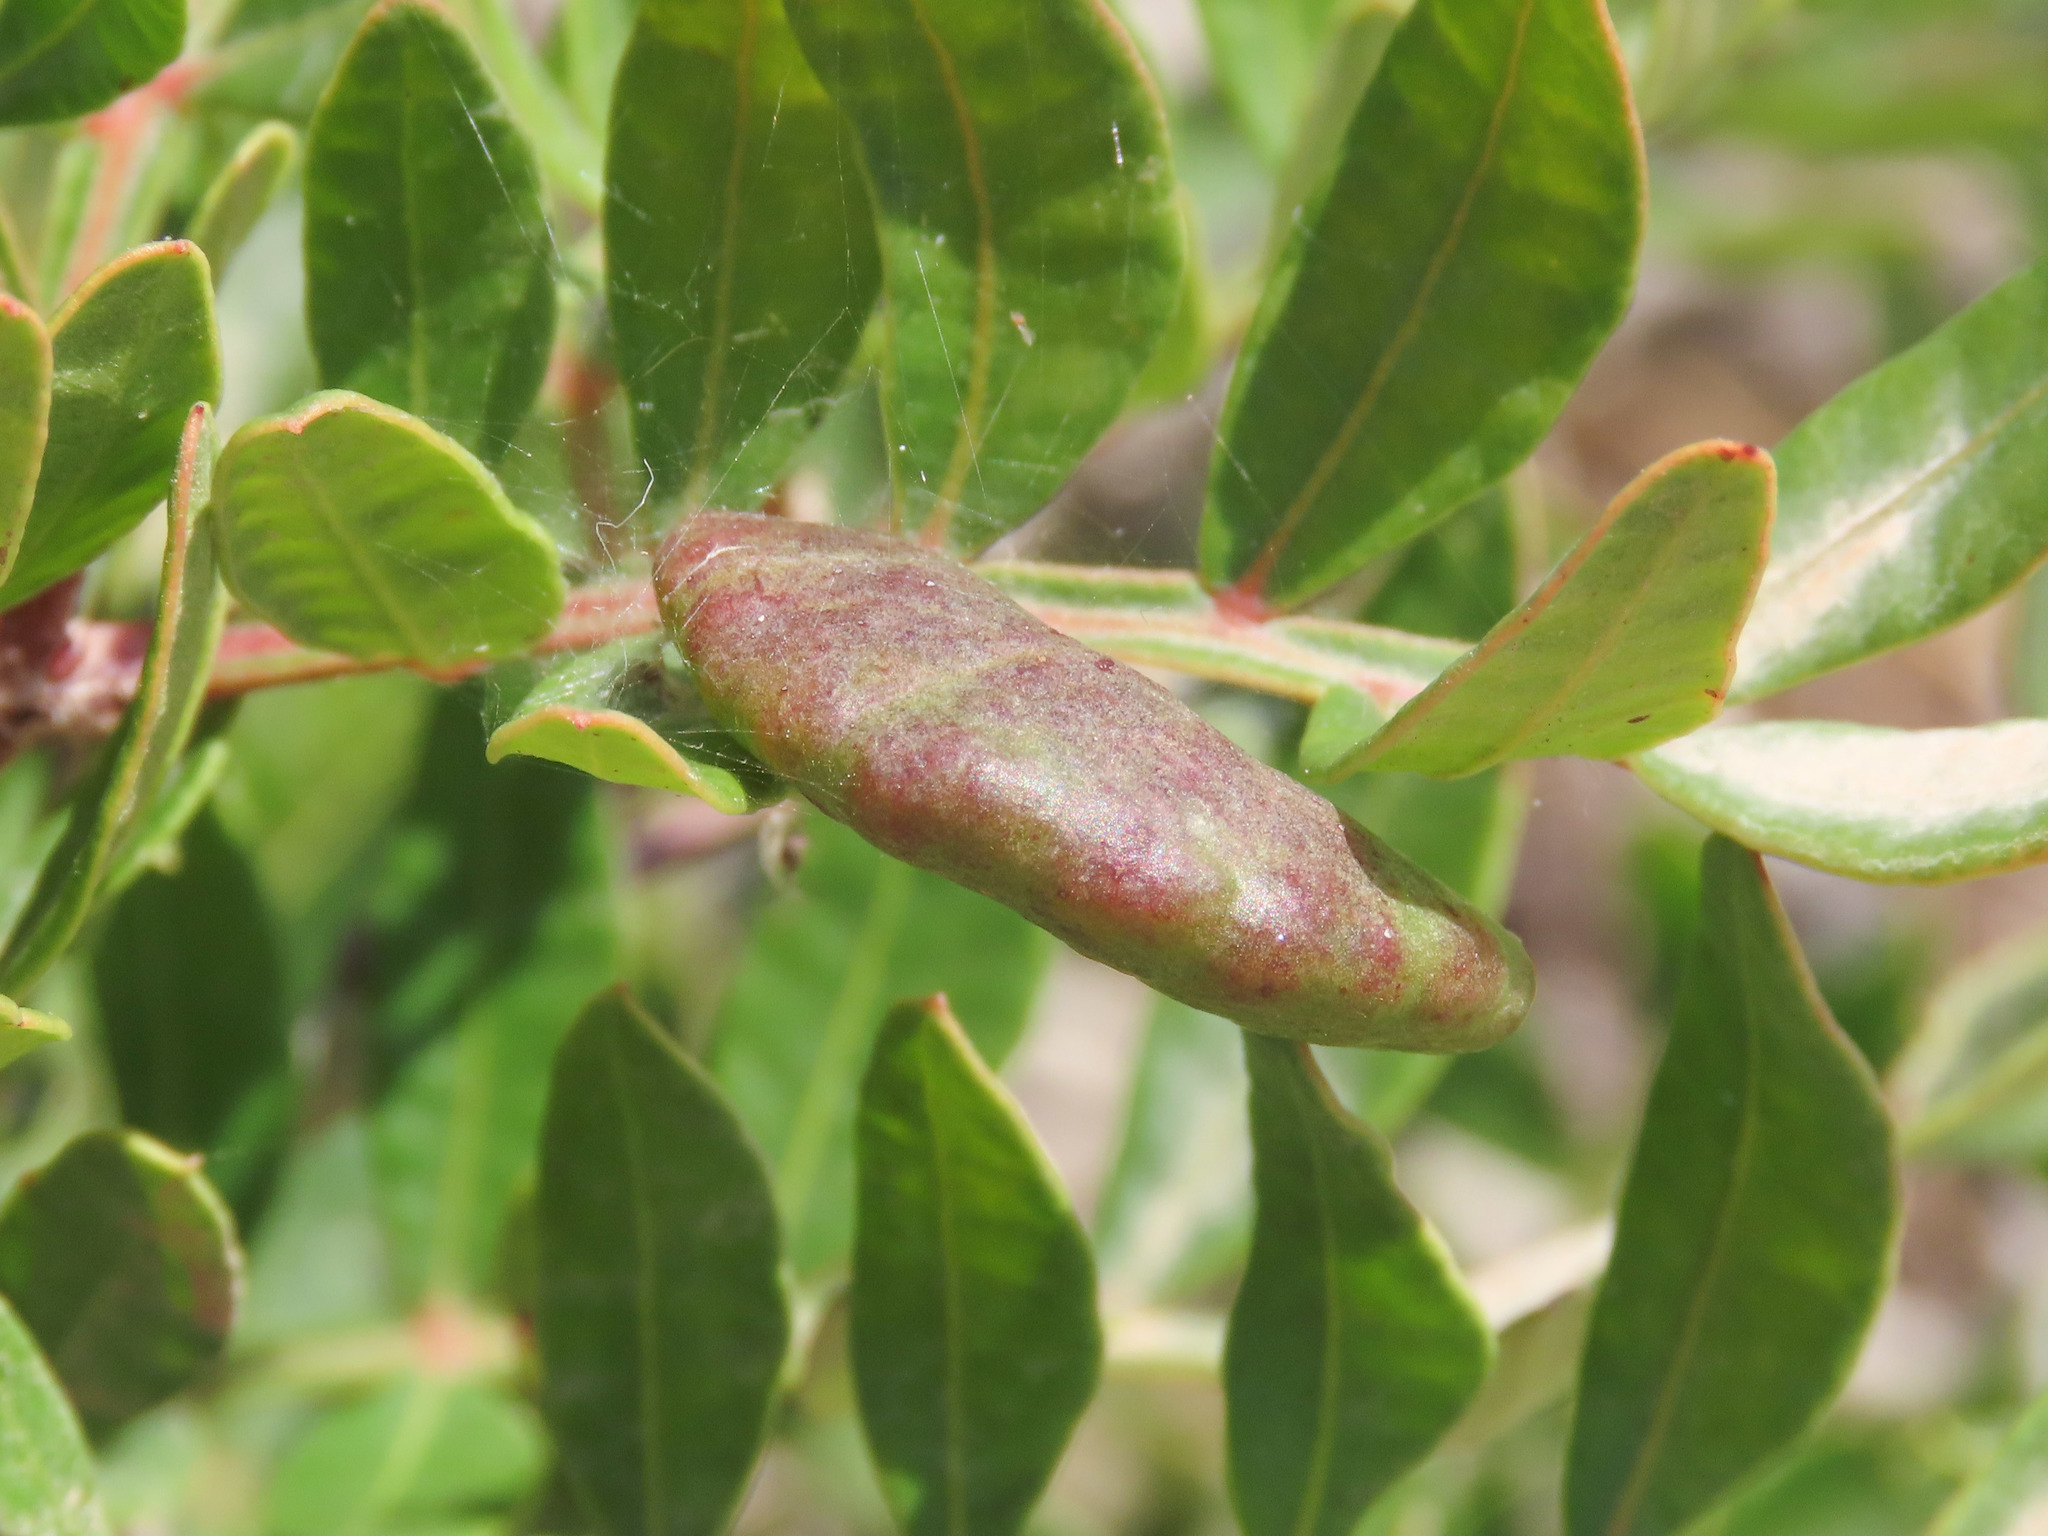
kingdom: Animalia
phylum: Arthropoda
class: Insecta
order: Hemiptera
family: Aphididae
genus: Aploneura
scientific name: Aploneura lentisci
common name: Mealy grass root aphid
